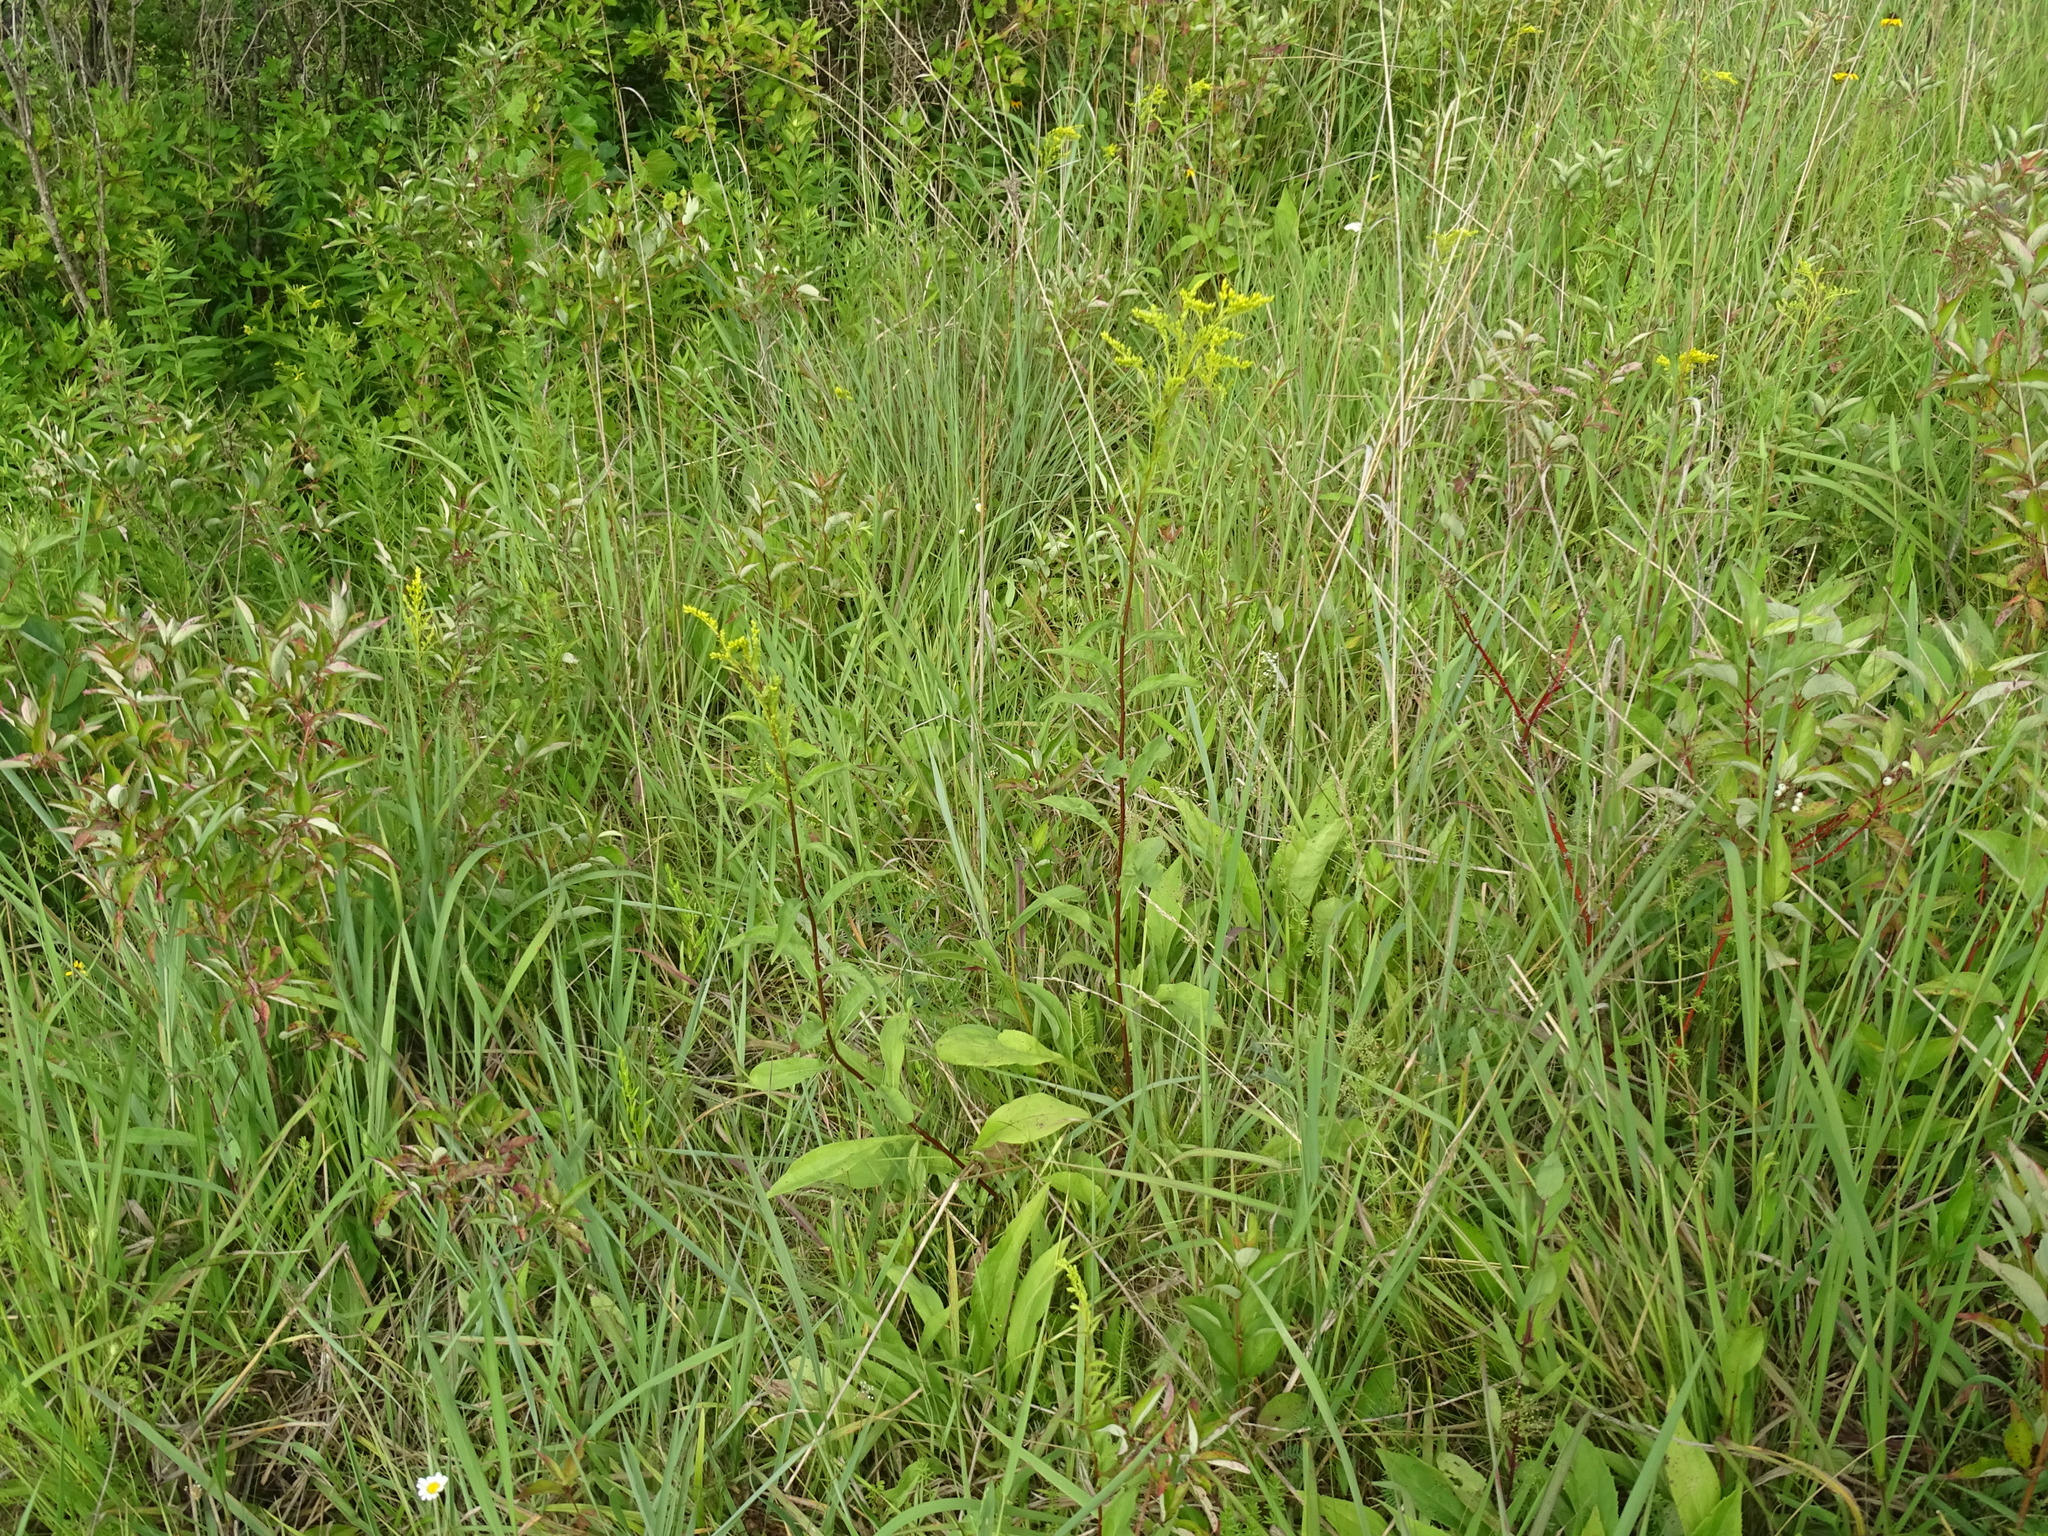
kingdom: Plantae
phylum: Tracheophyta
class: Magnoliopsida
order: Asterales
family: Asteraceae
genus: Solidago
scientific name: Solidago juncea
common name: Early goldenrod
